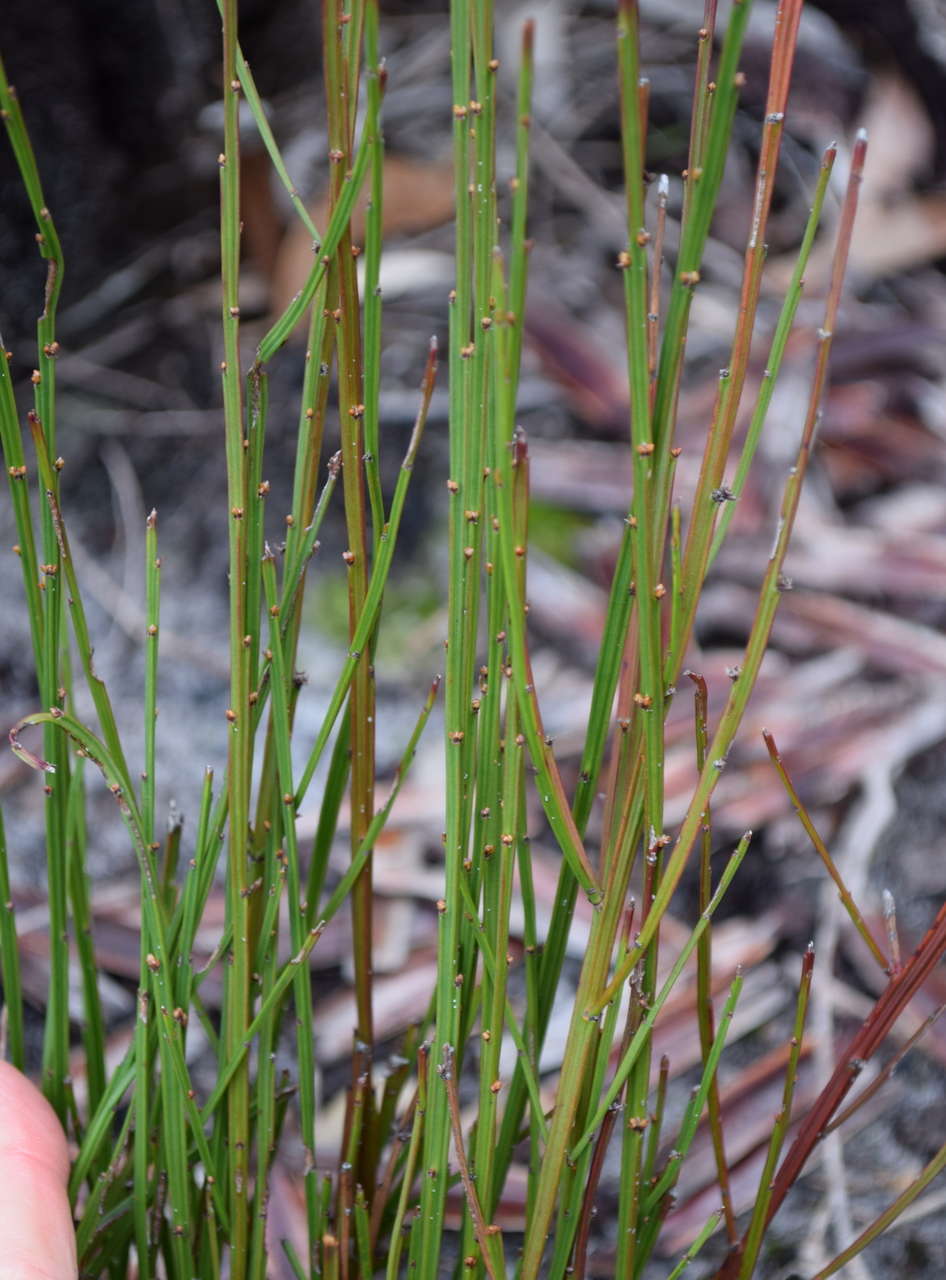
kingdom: Plantae
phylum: Tracheophyta
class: Magnoliopsida
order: Malpighiales
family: Euphorbiaceae
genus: Amperea
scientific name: Amperea xiphoclada
